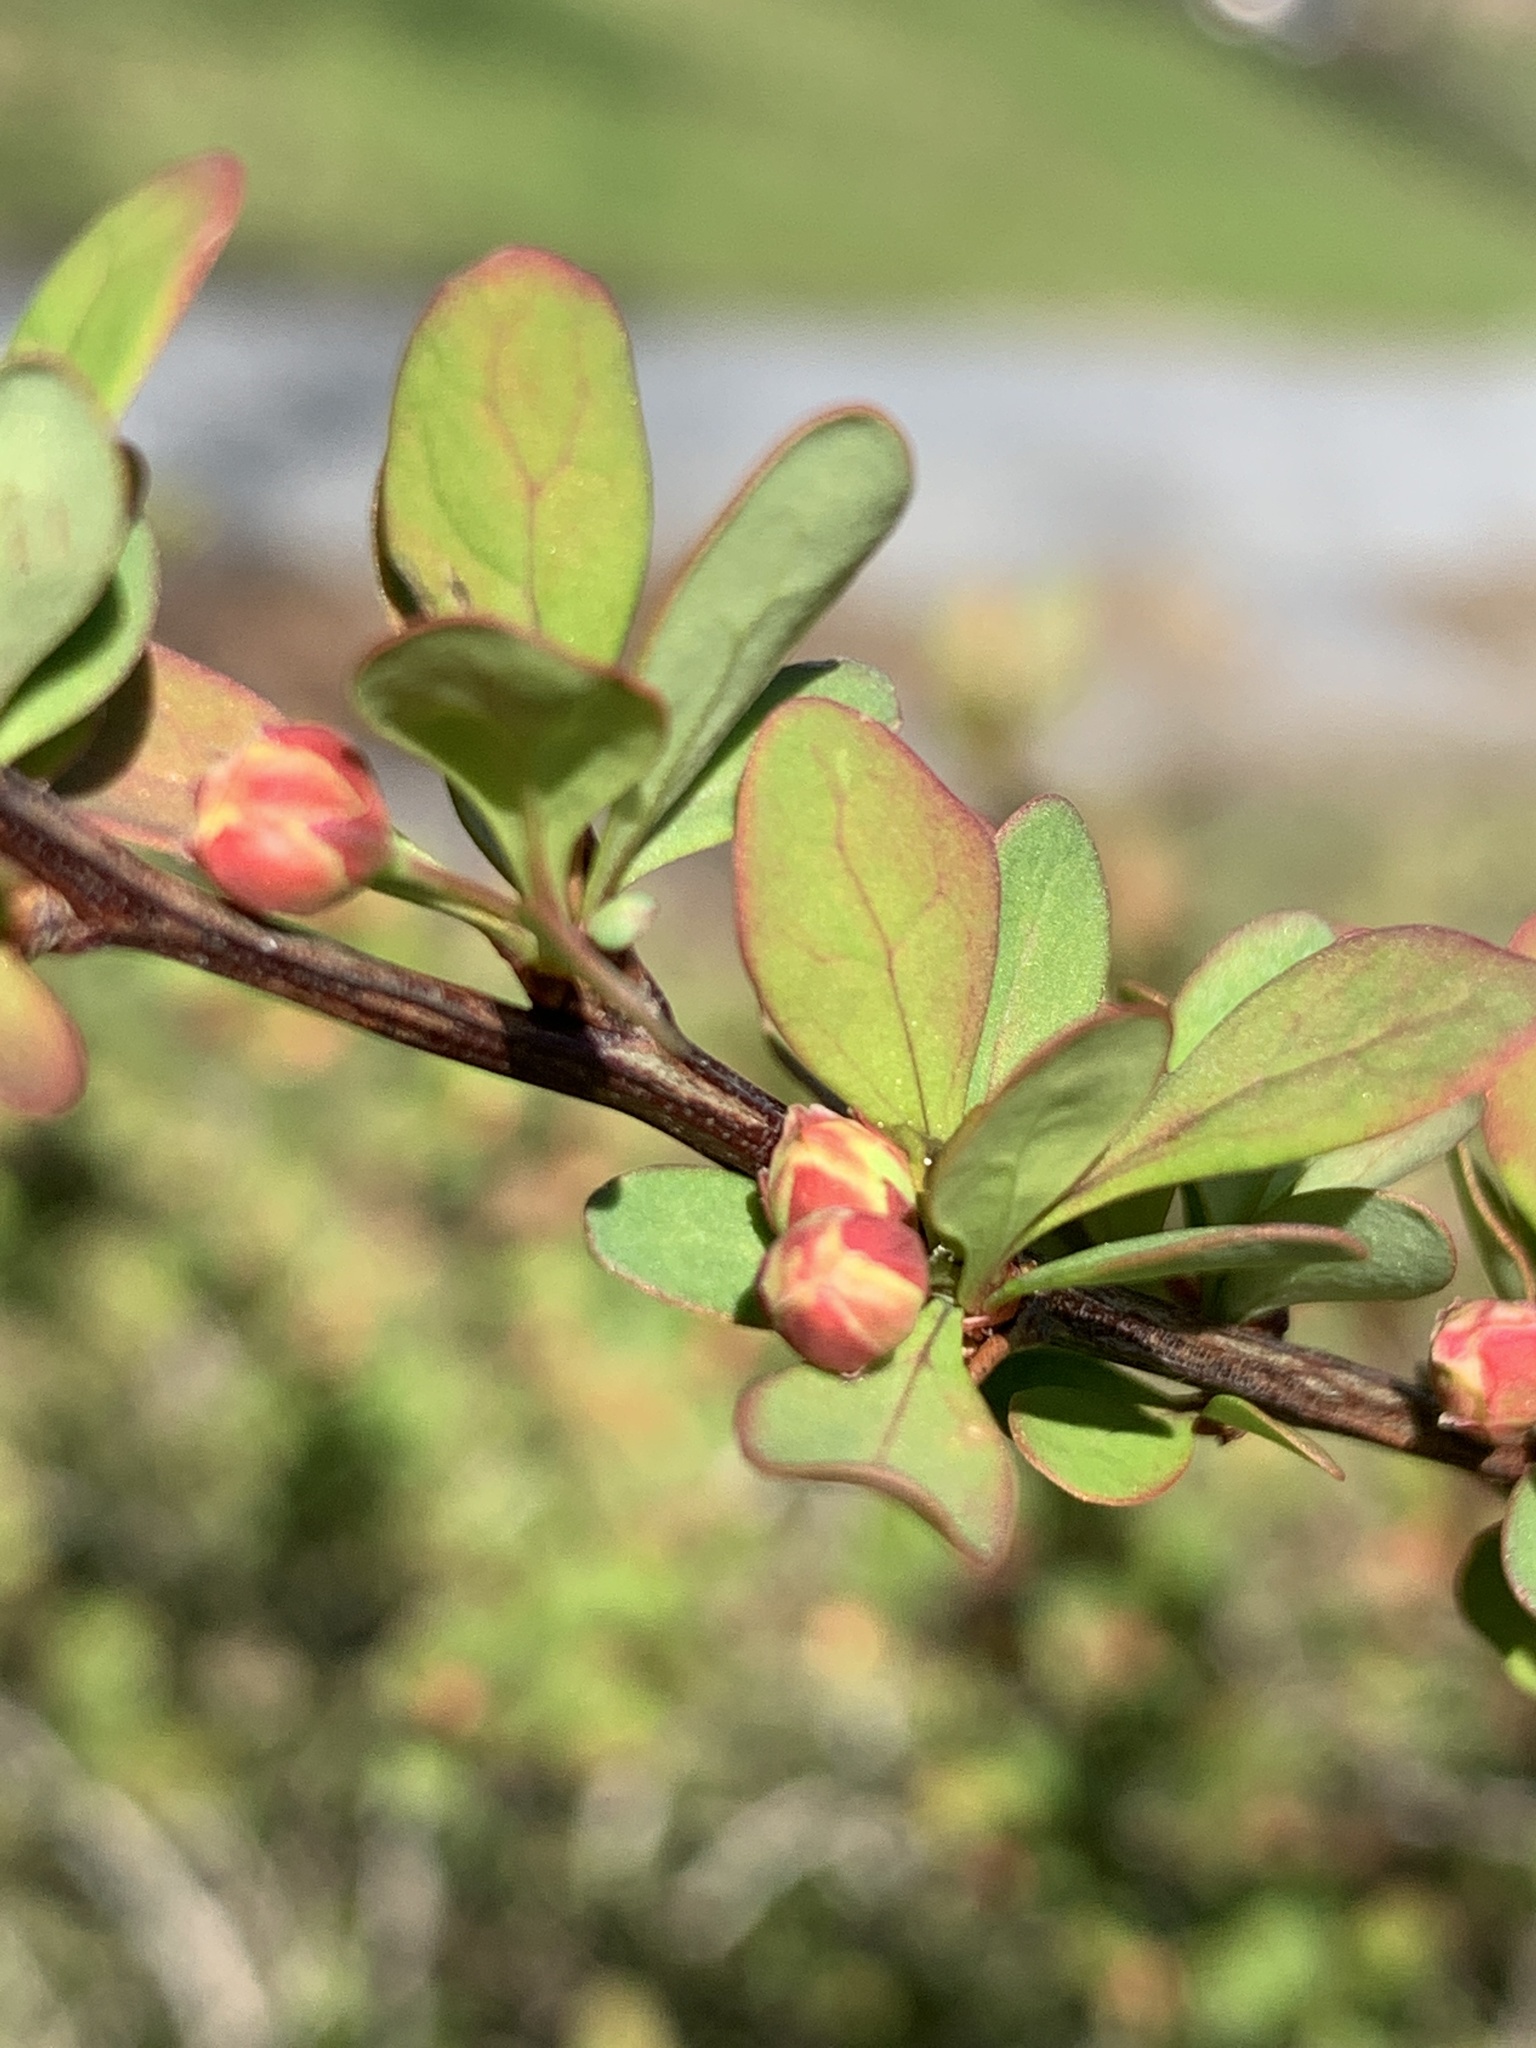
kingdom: Plantae
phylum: Tracheophyta
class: Magnoliopsida
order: Ranunculales
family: Berberidaceae
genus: Berberis
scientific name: Berberis thunbergii
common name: Japanese barberry
